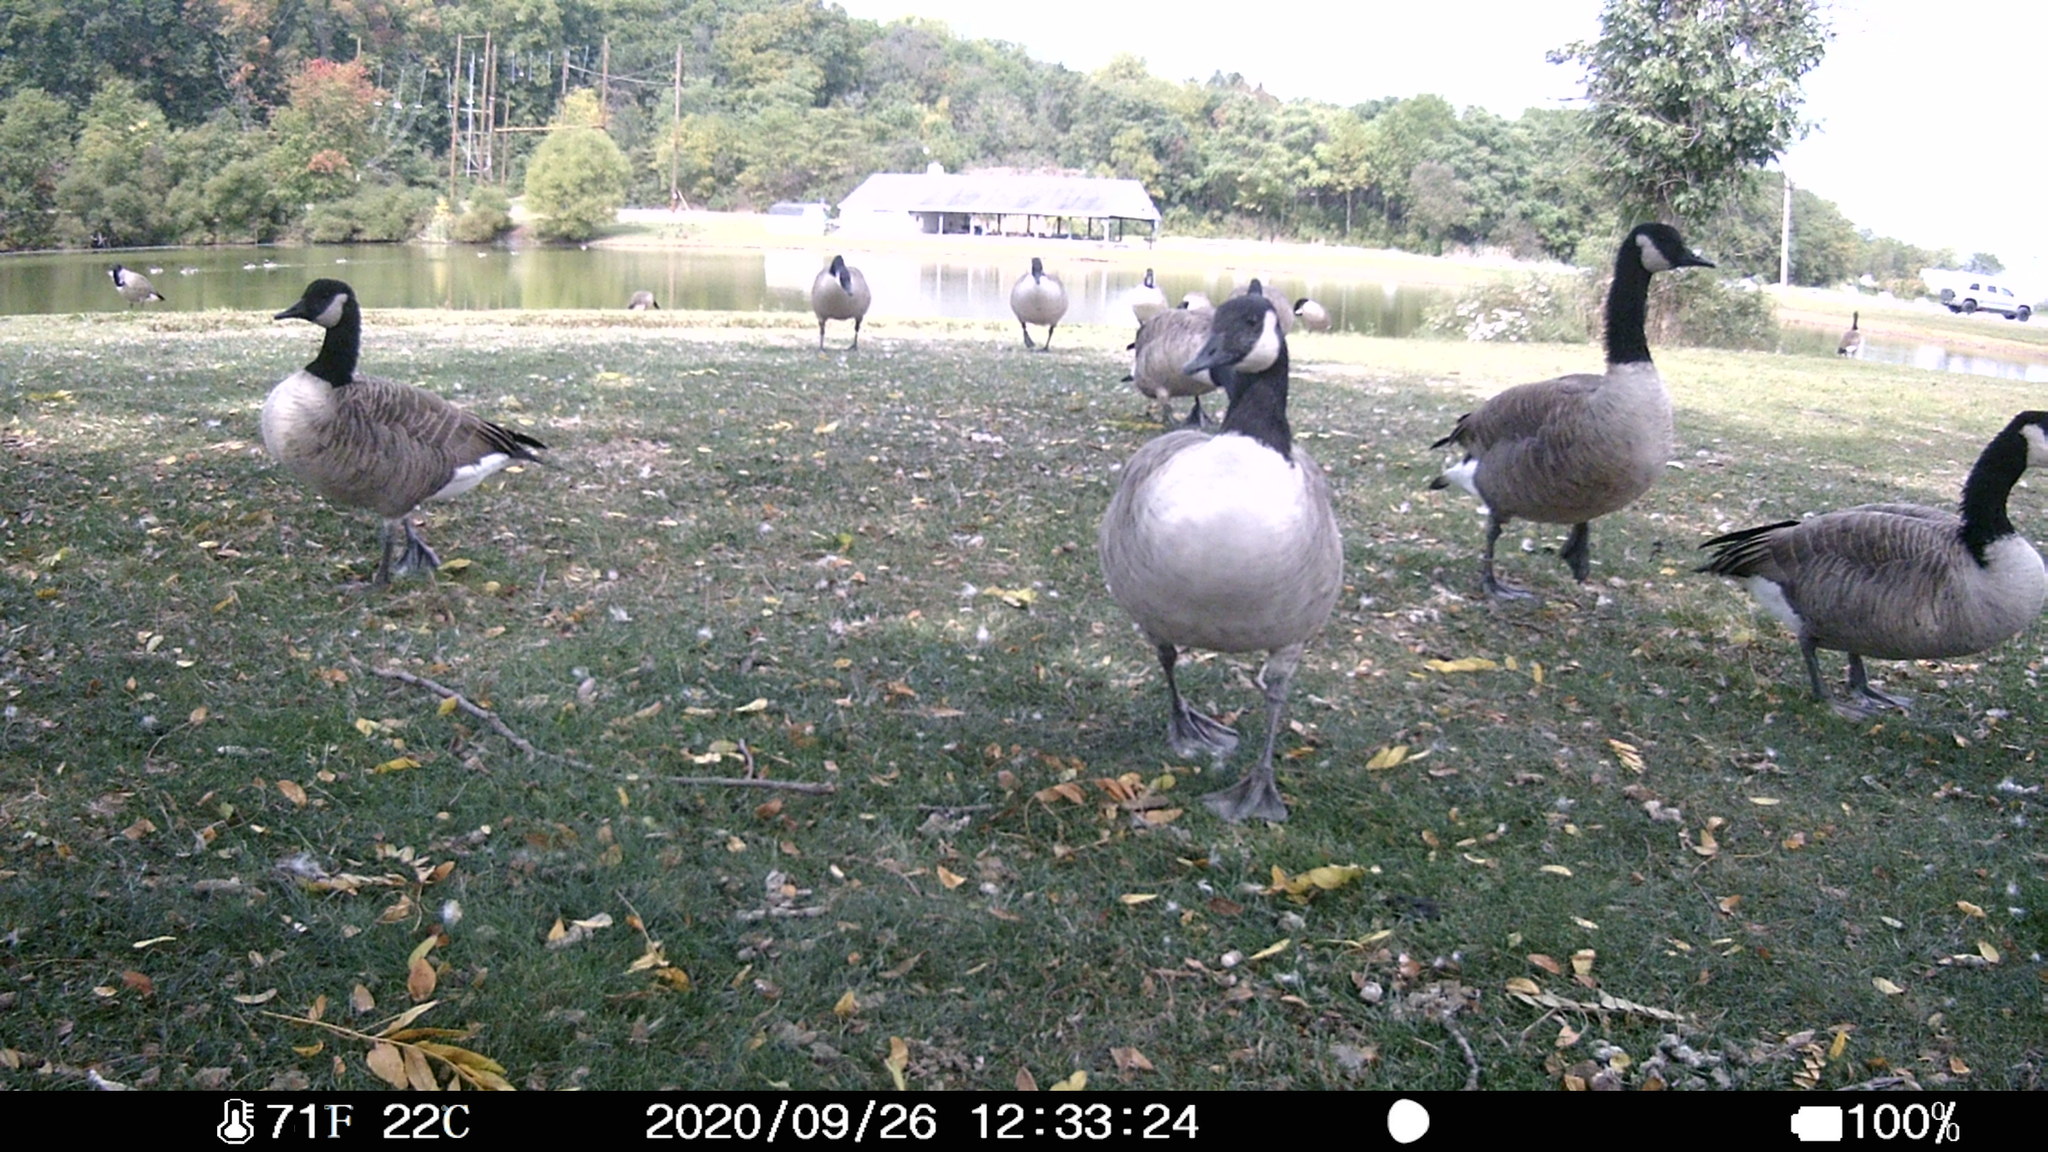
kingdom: Animalia
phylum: Chordata
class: Aves
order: Anseriformes
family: Anatidae
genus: Branta
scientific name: Branta canadensis
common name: Canada goose
